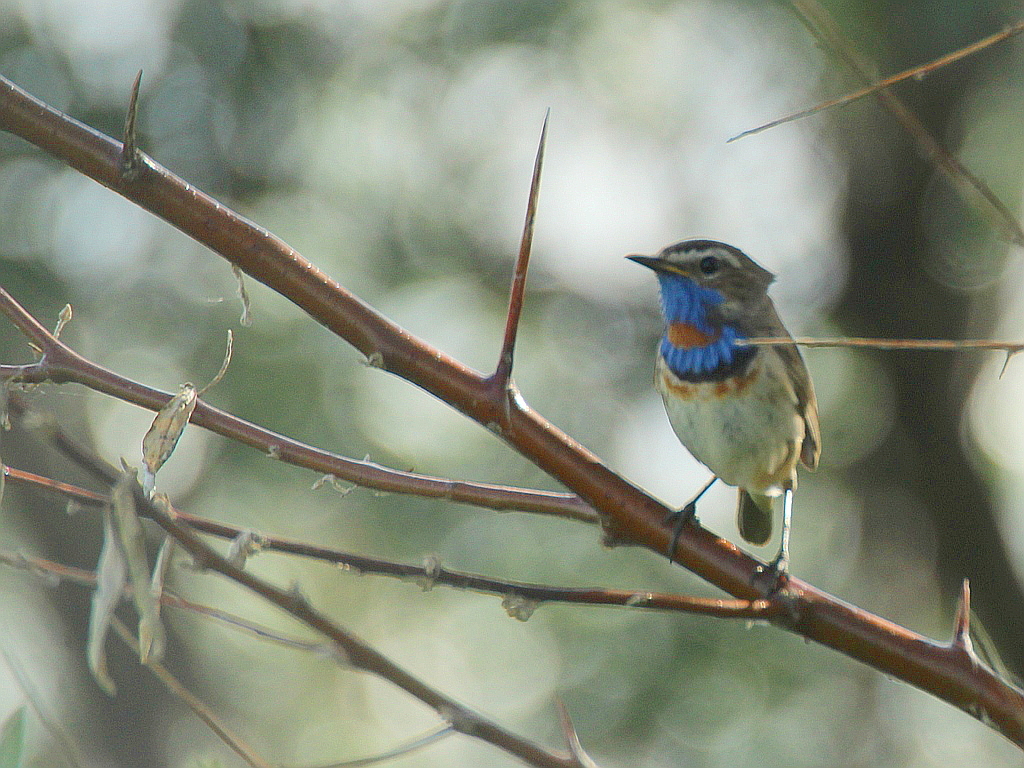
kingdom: Animalia
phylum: Chordata
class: Aves
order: Passeriformes
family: Muscicapidae
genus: Luscinia
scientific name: Luscinia svecica
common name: Bluethroat
